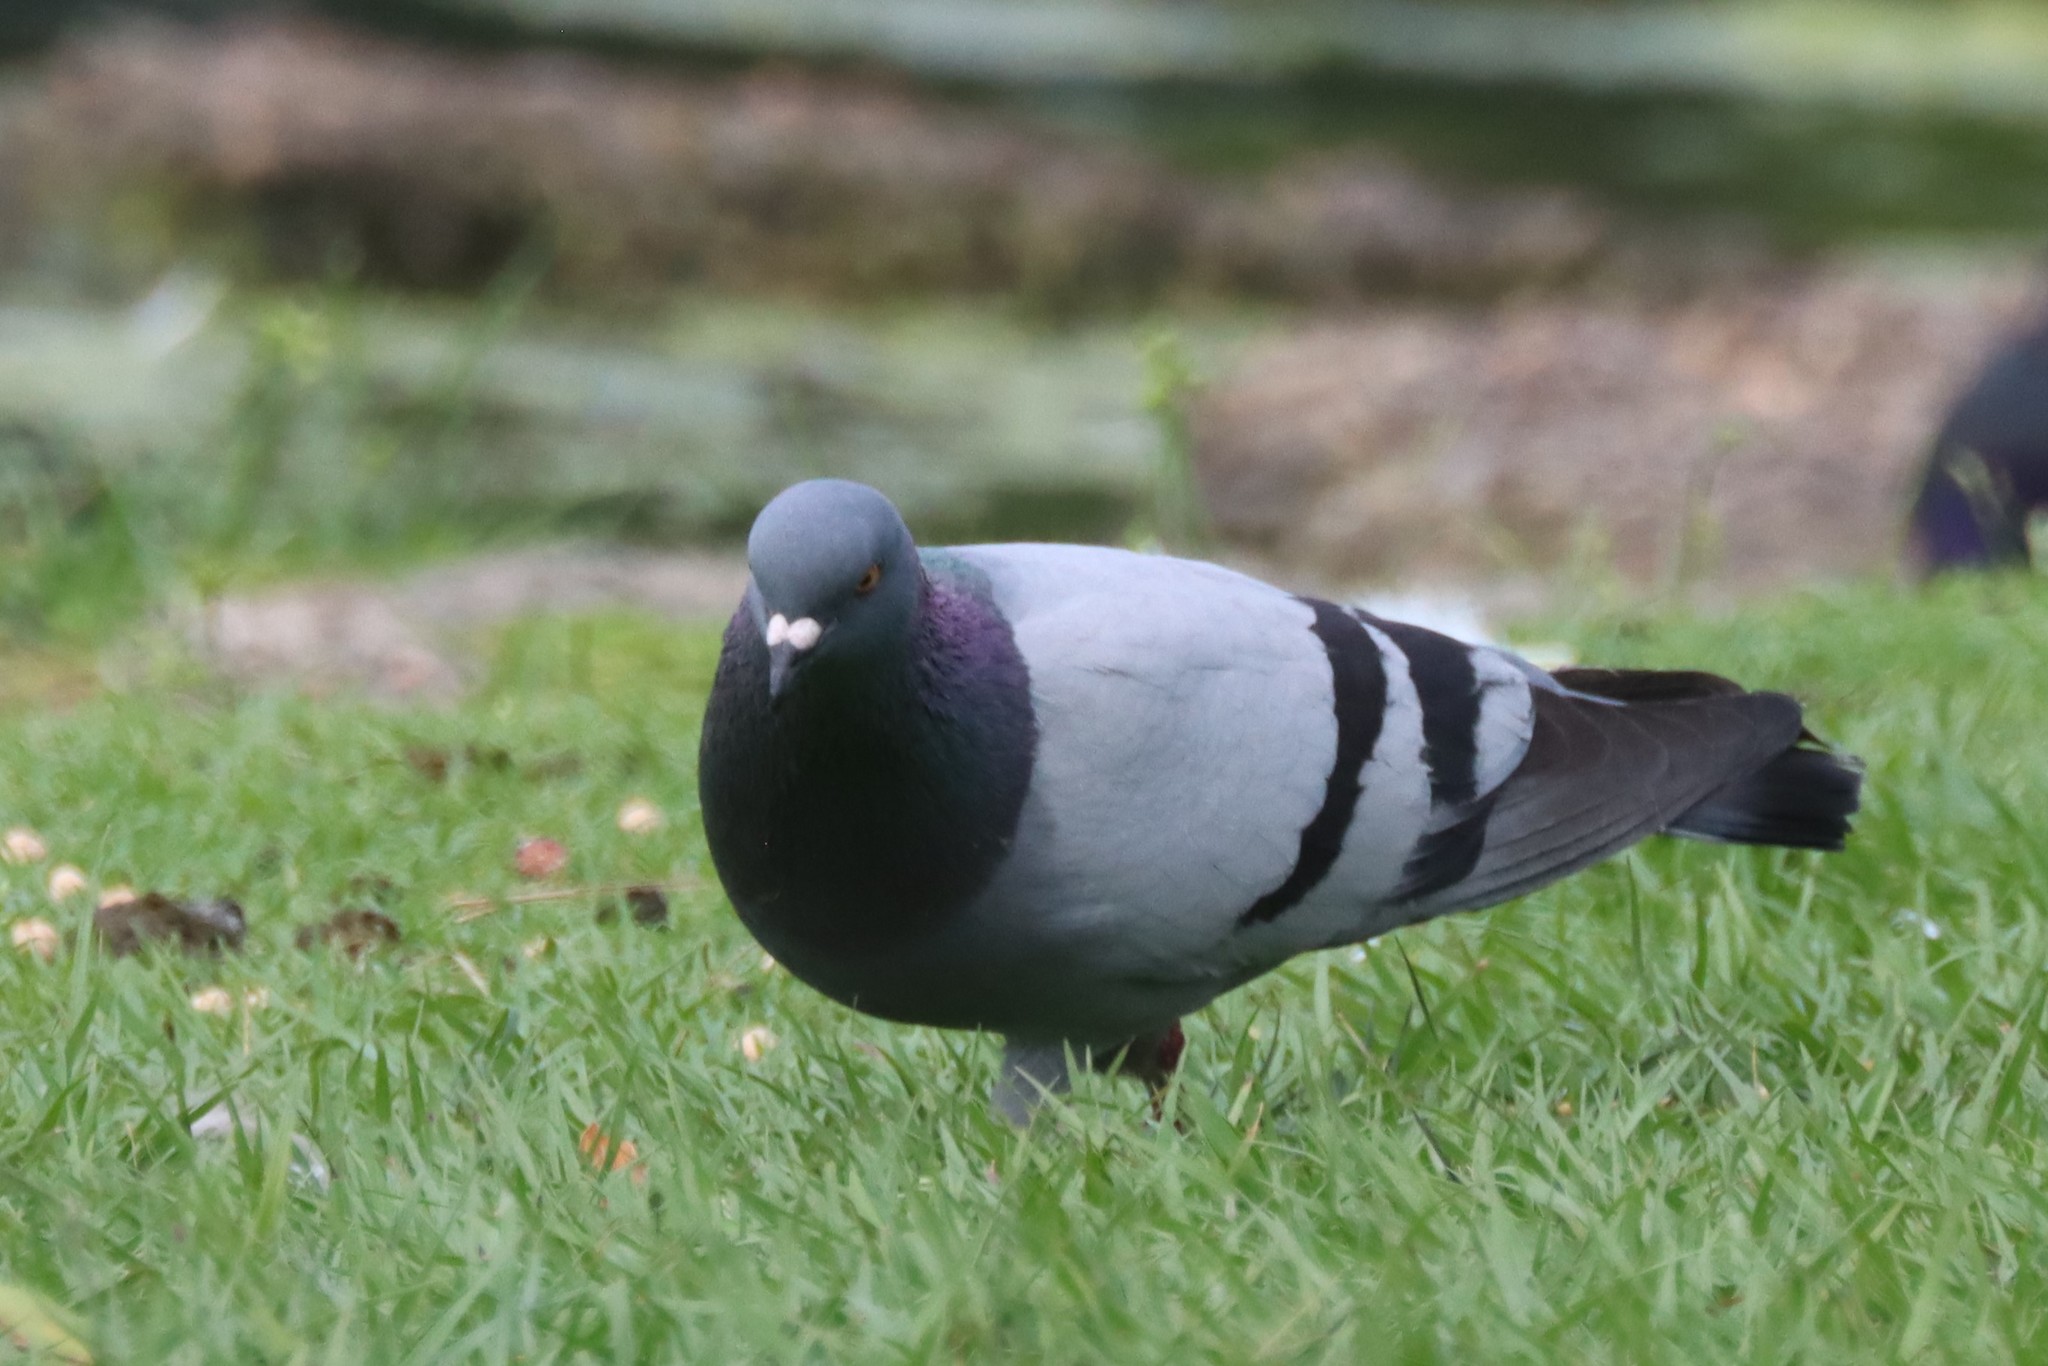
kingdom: Animalia
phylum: Chordata
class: Aves
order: Columbiformes
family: Columbidae
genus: Columba
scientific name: Columba livia
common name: Rock pigeon
